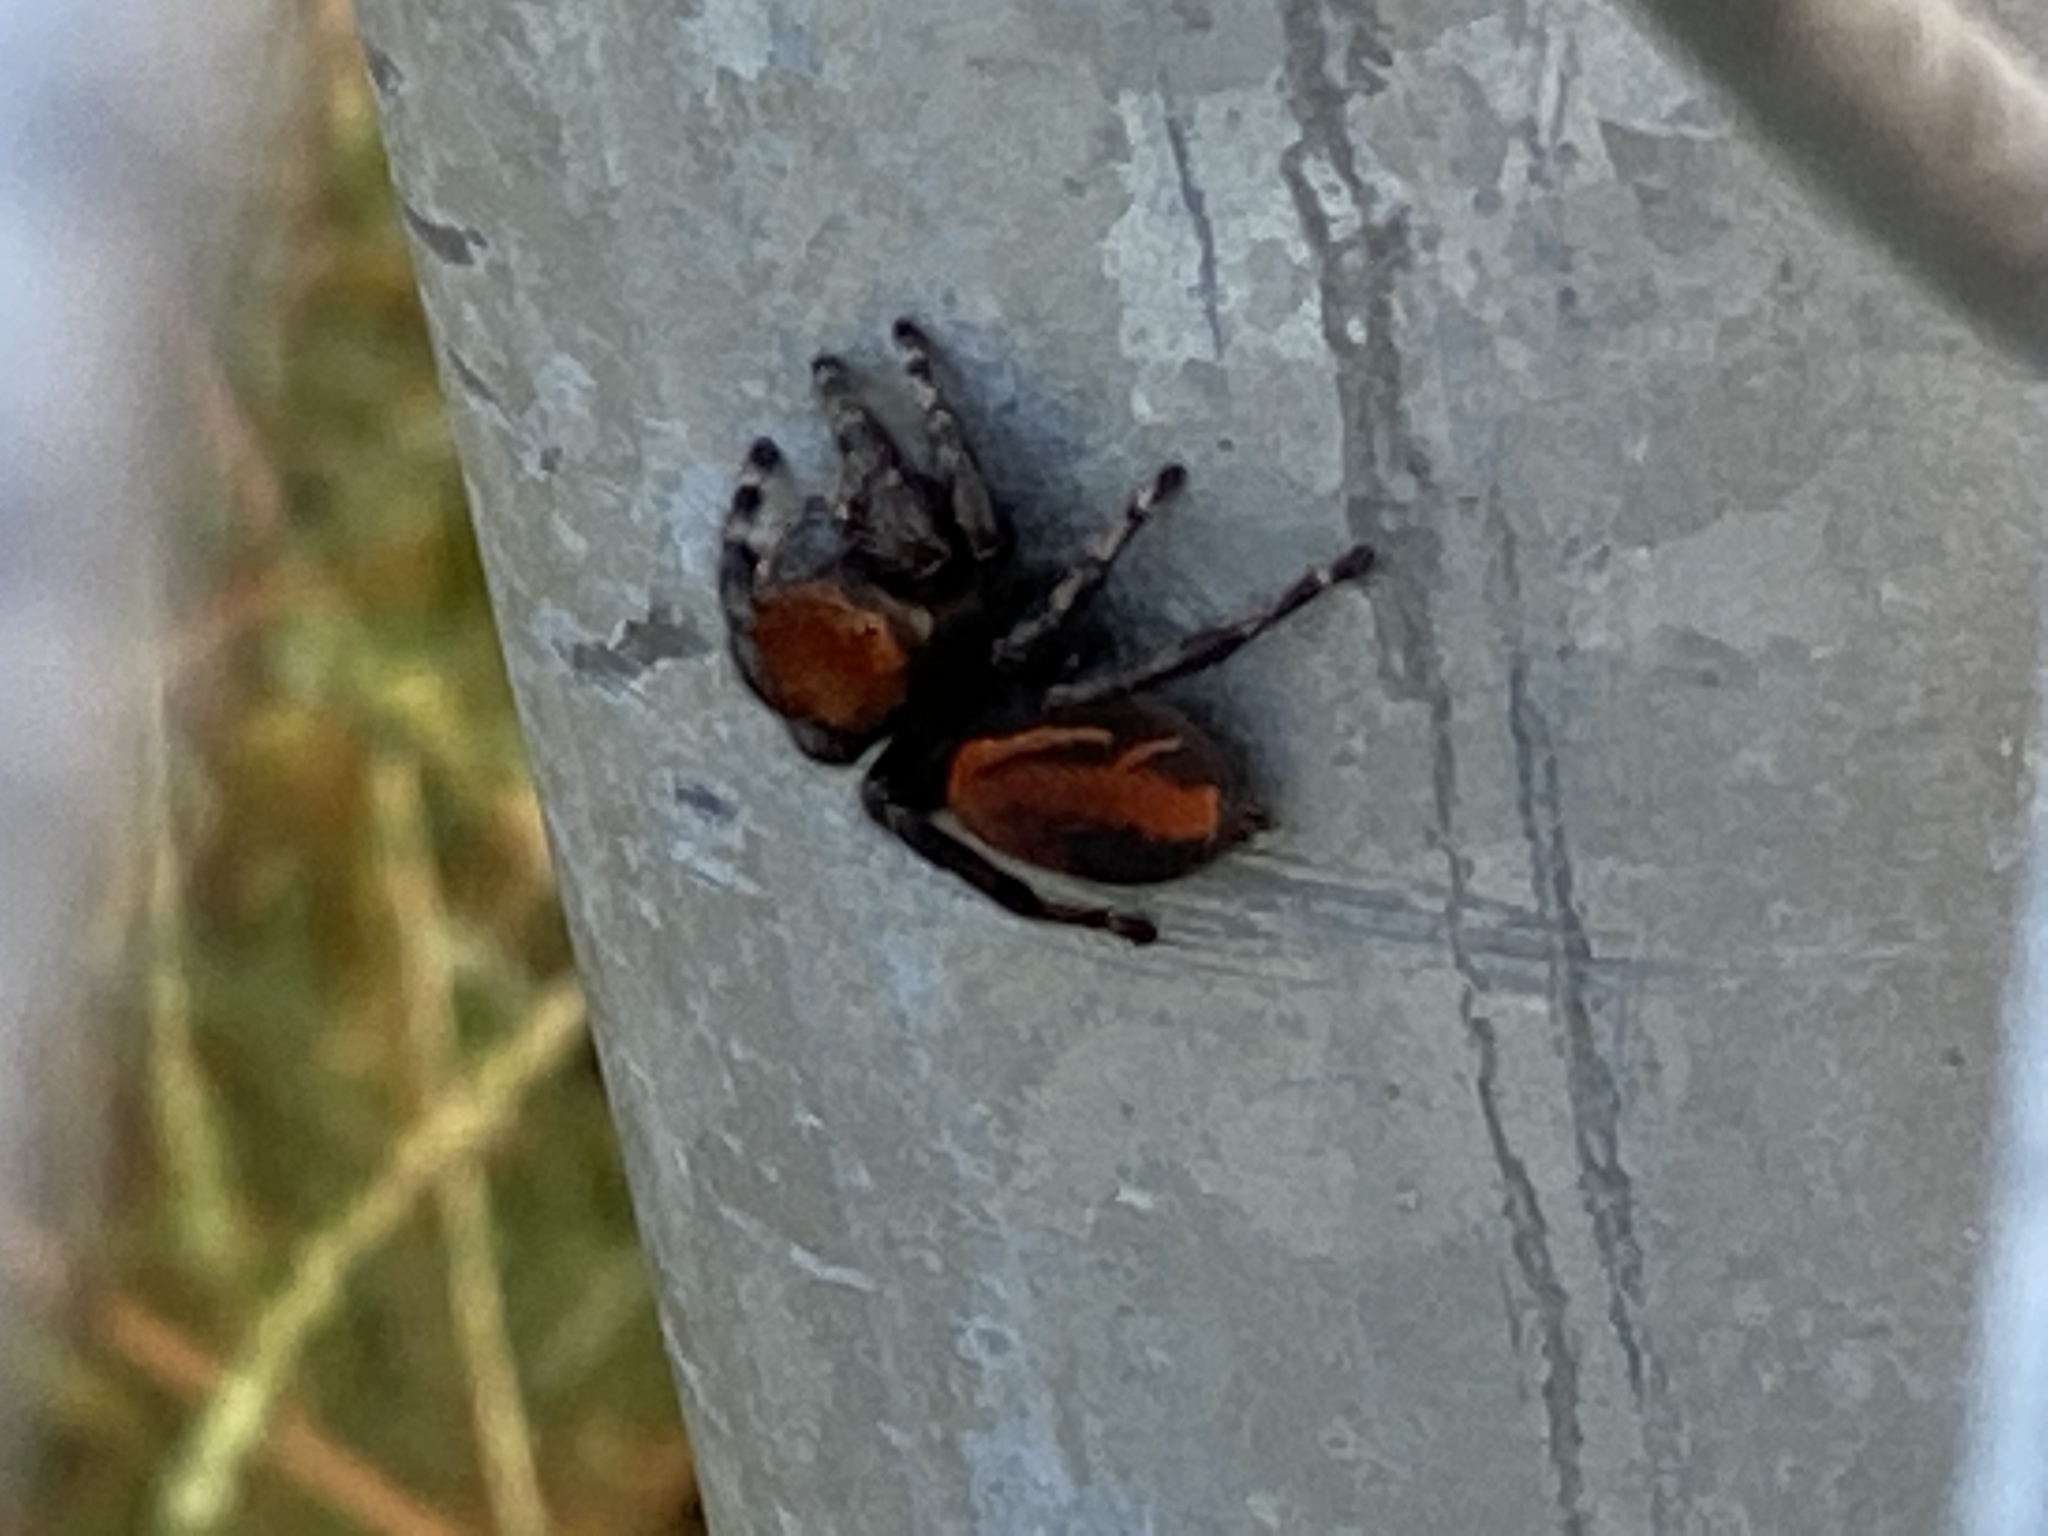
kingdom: Animalia
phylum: Arthropoda
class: Arachnida
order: Araneae
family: Salticidae
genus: Phidippus
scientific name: Phidippus apacheanus
